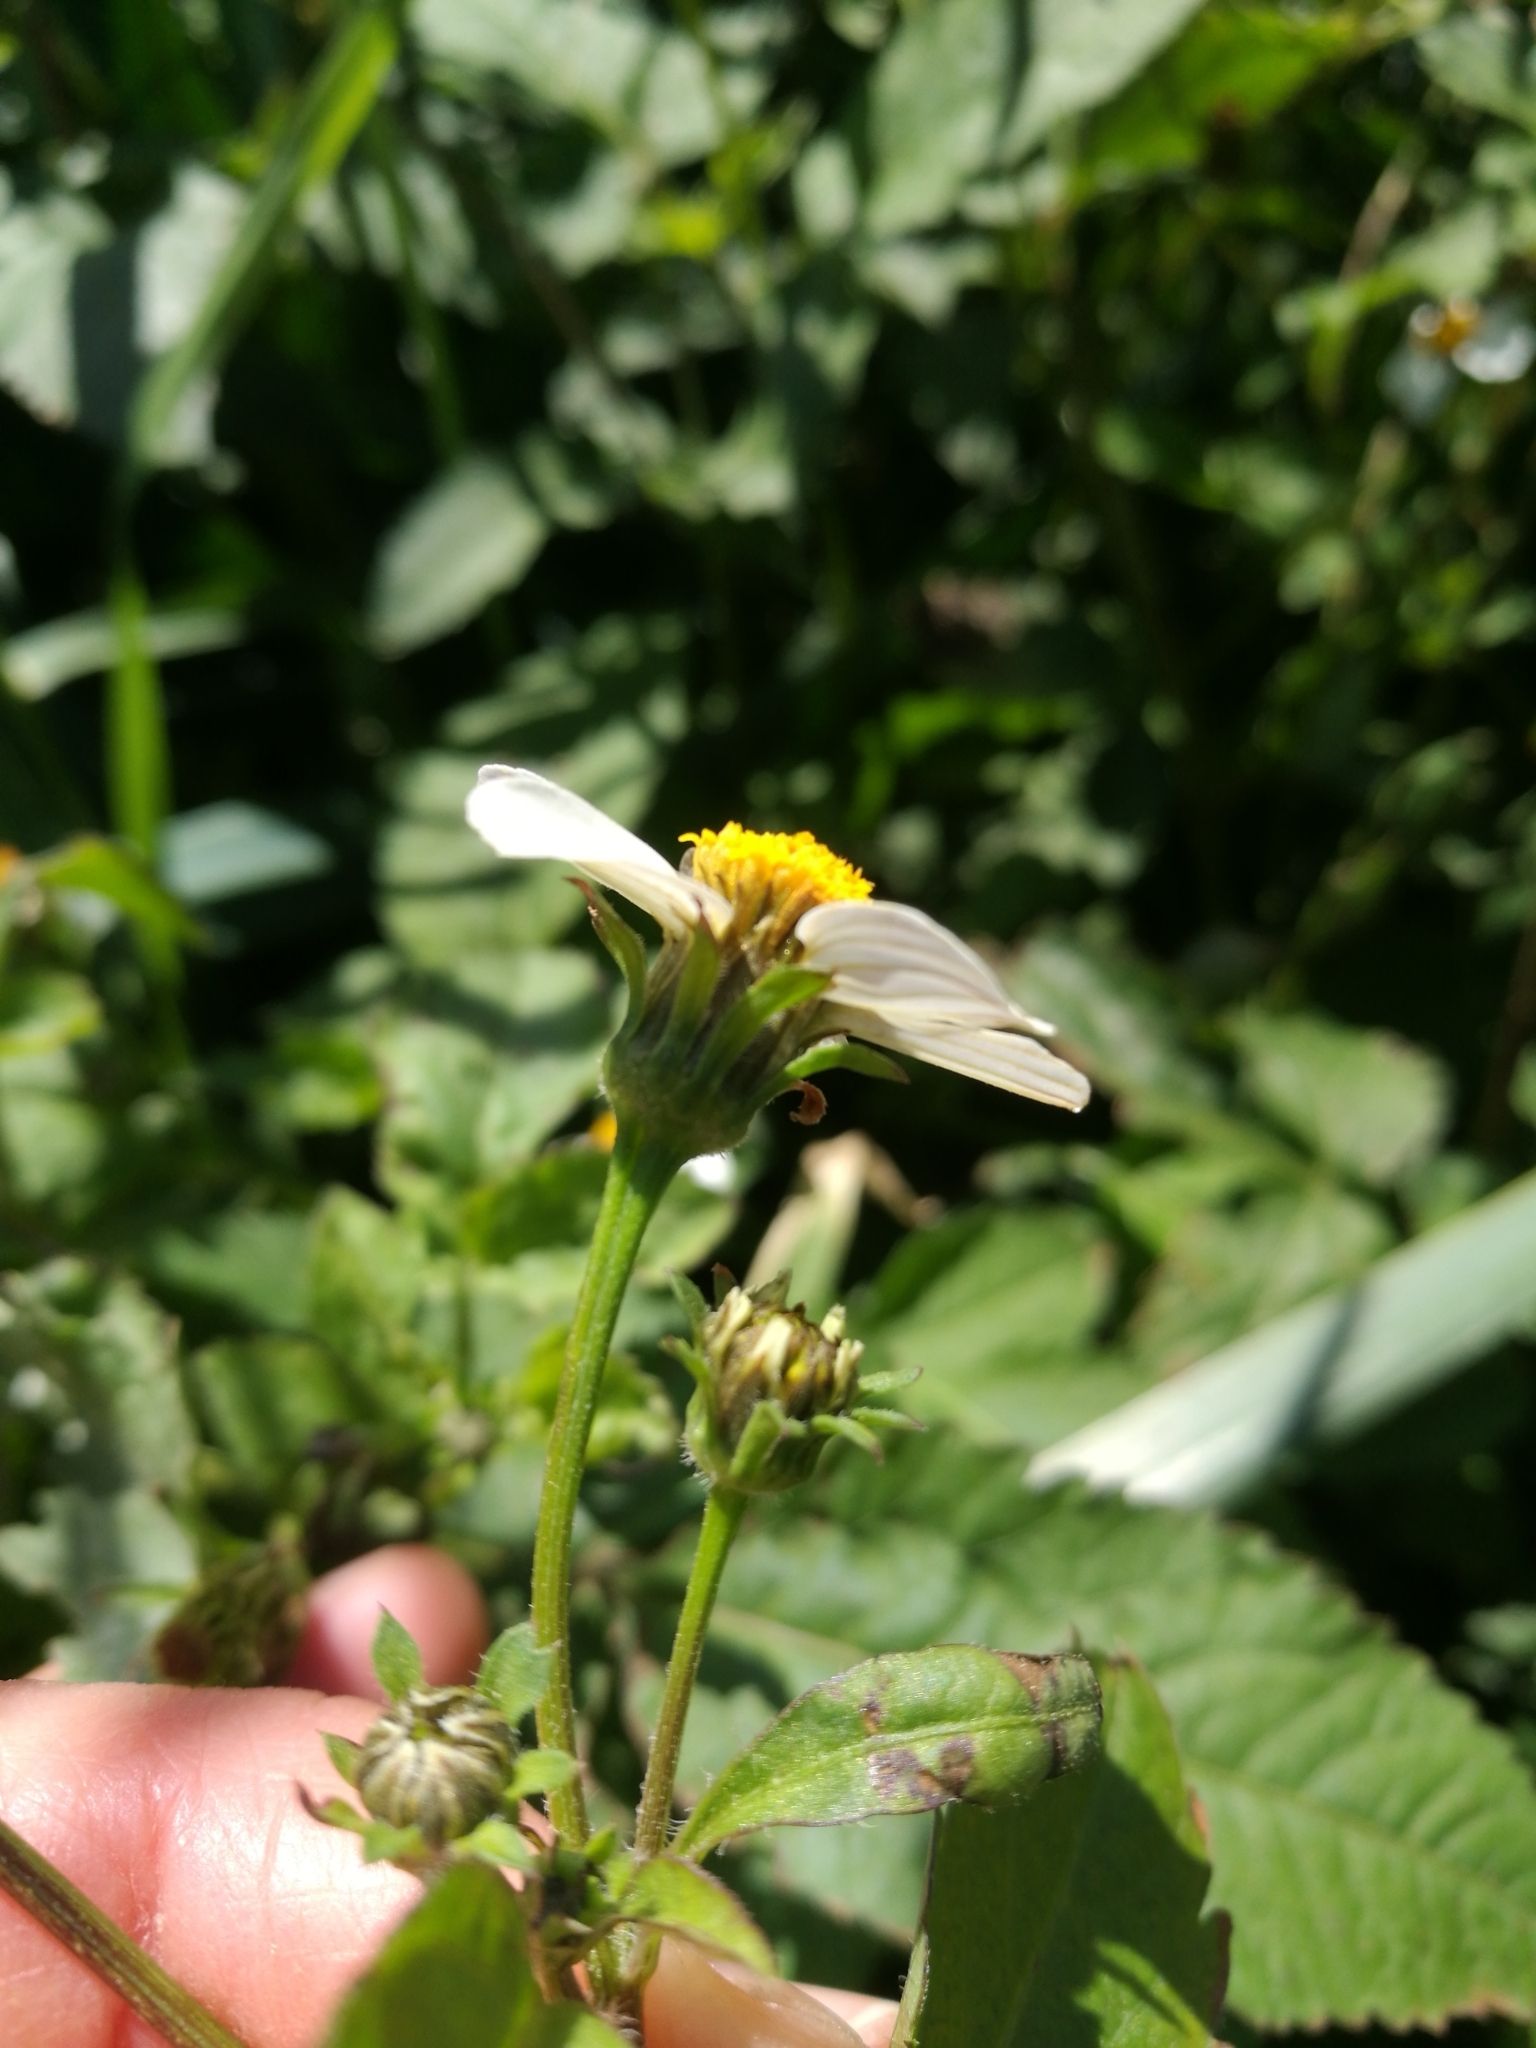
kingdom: Plantae
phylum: Tracheophyta
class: Magnoliopsida
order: Asterales
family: Asteraceae
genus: Bidens
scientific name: Bidens pilosa
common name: Black-jack
